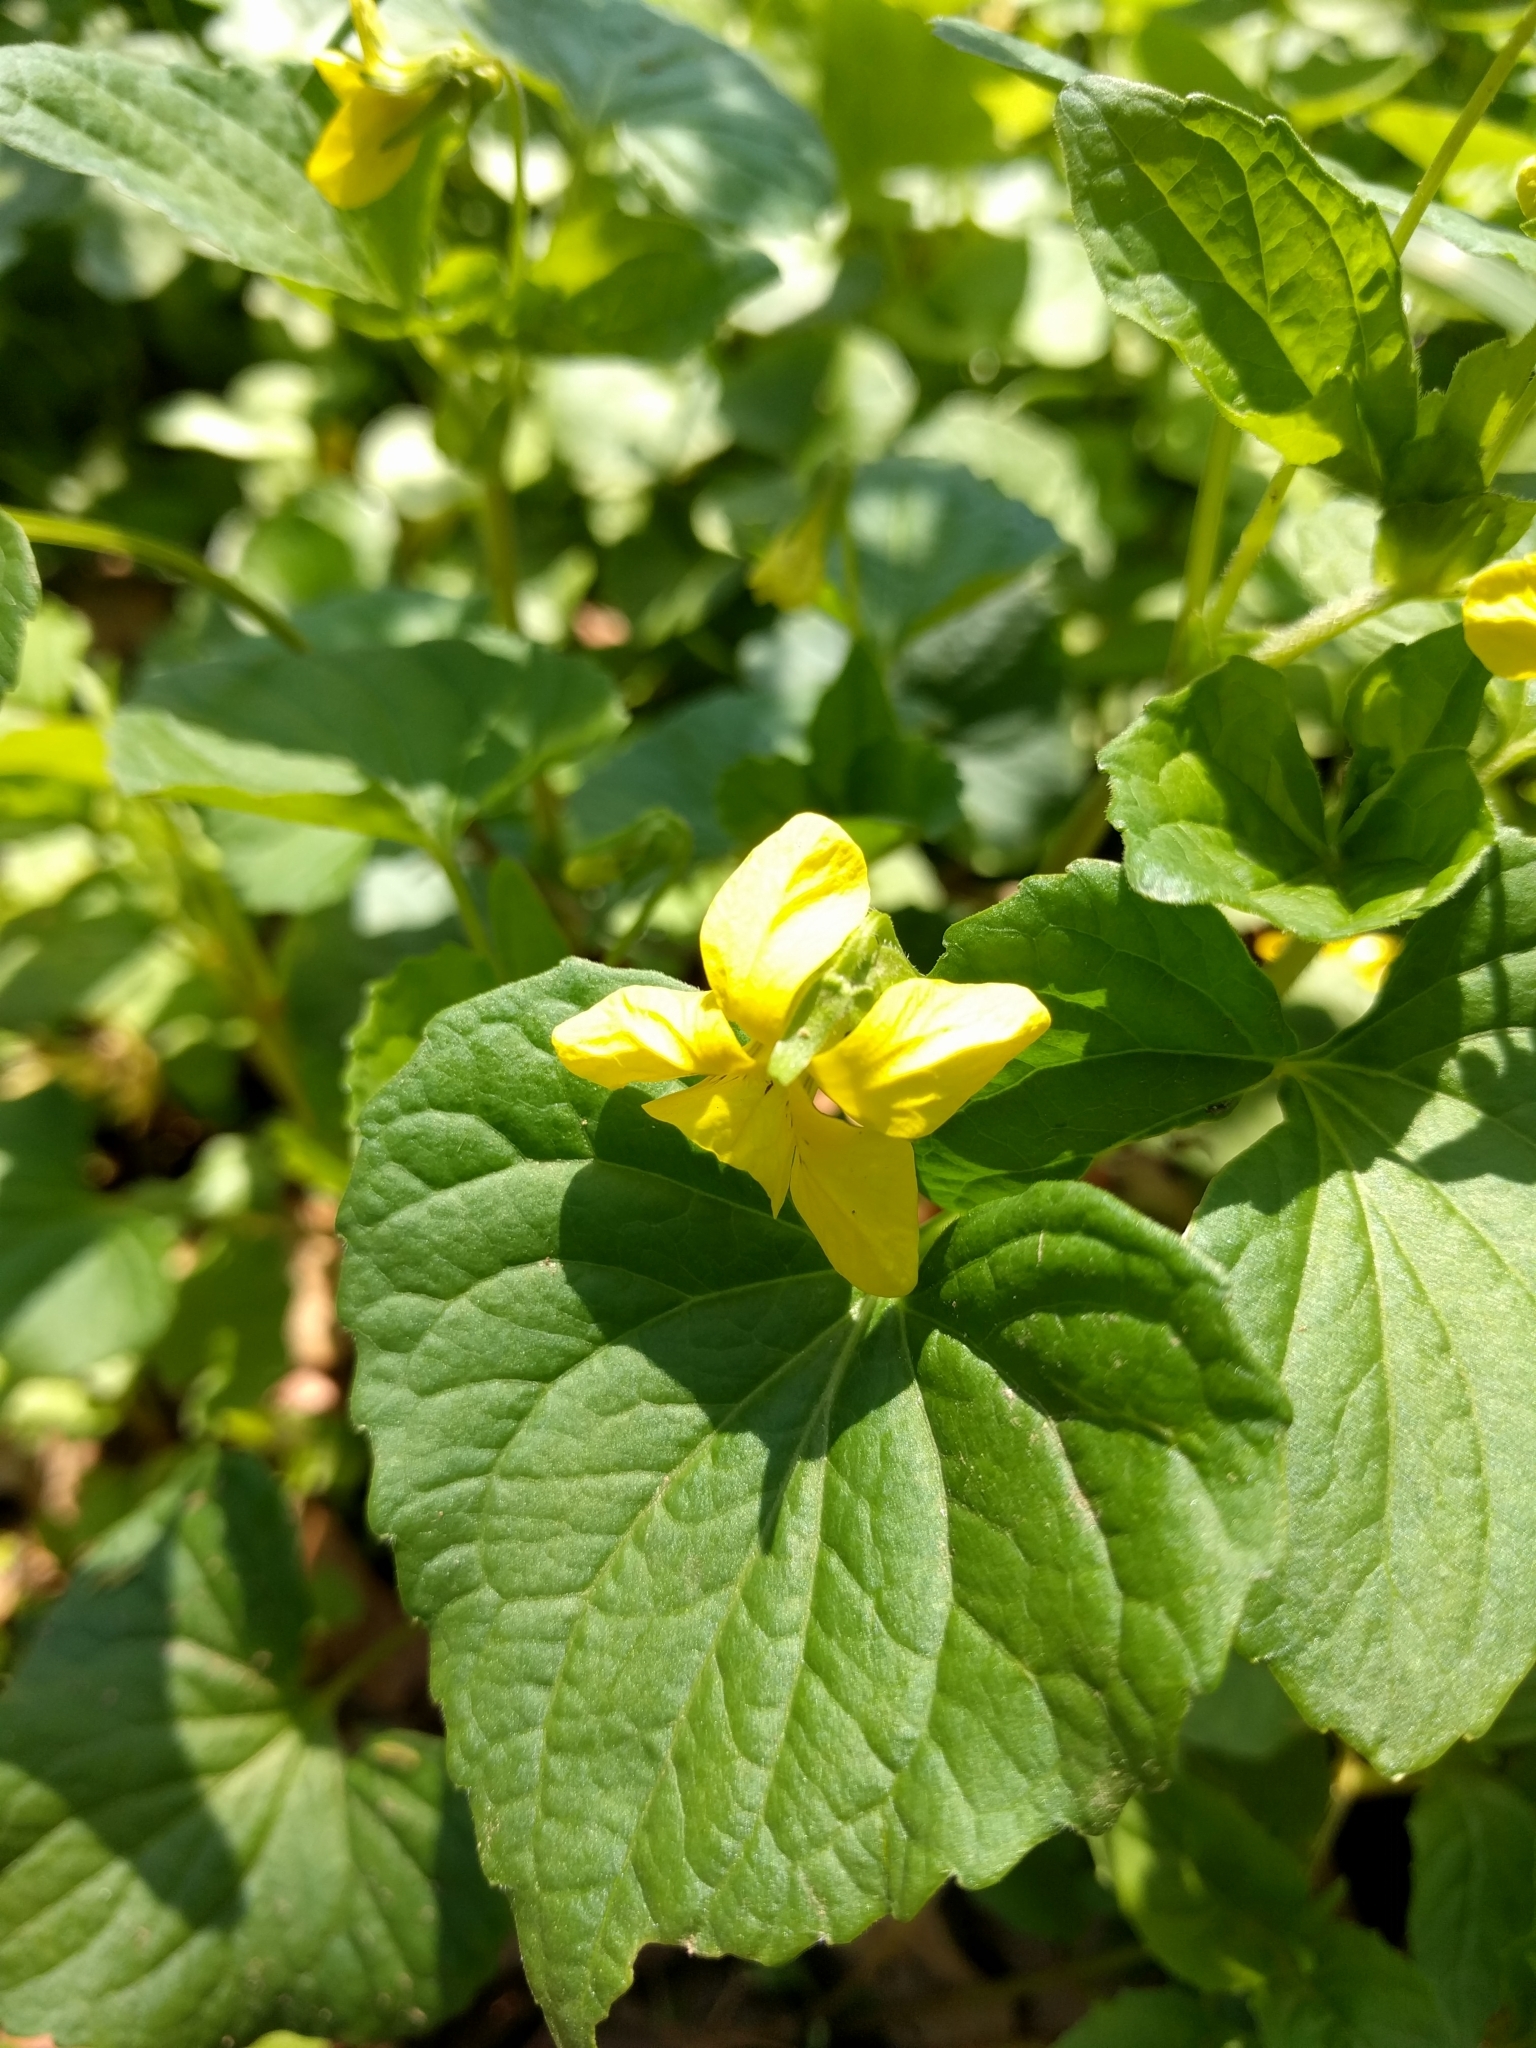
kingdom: Plantae
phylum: Tracheophyta
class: Magnoliopsida
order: Malpighiales
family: Violaceae
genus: Viola
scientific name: Viola eriocarpa
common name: Smooth yellow violet
